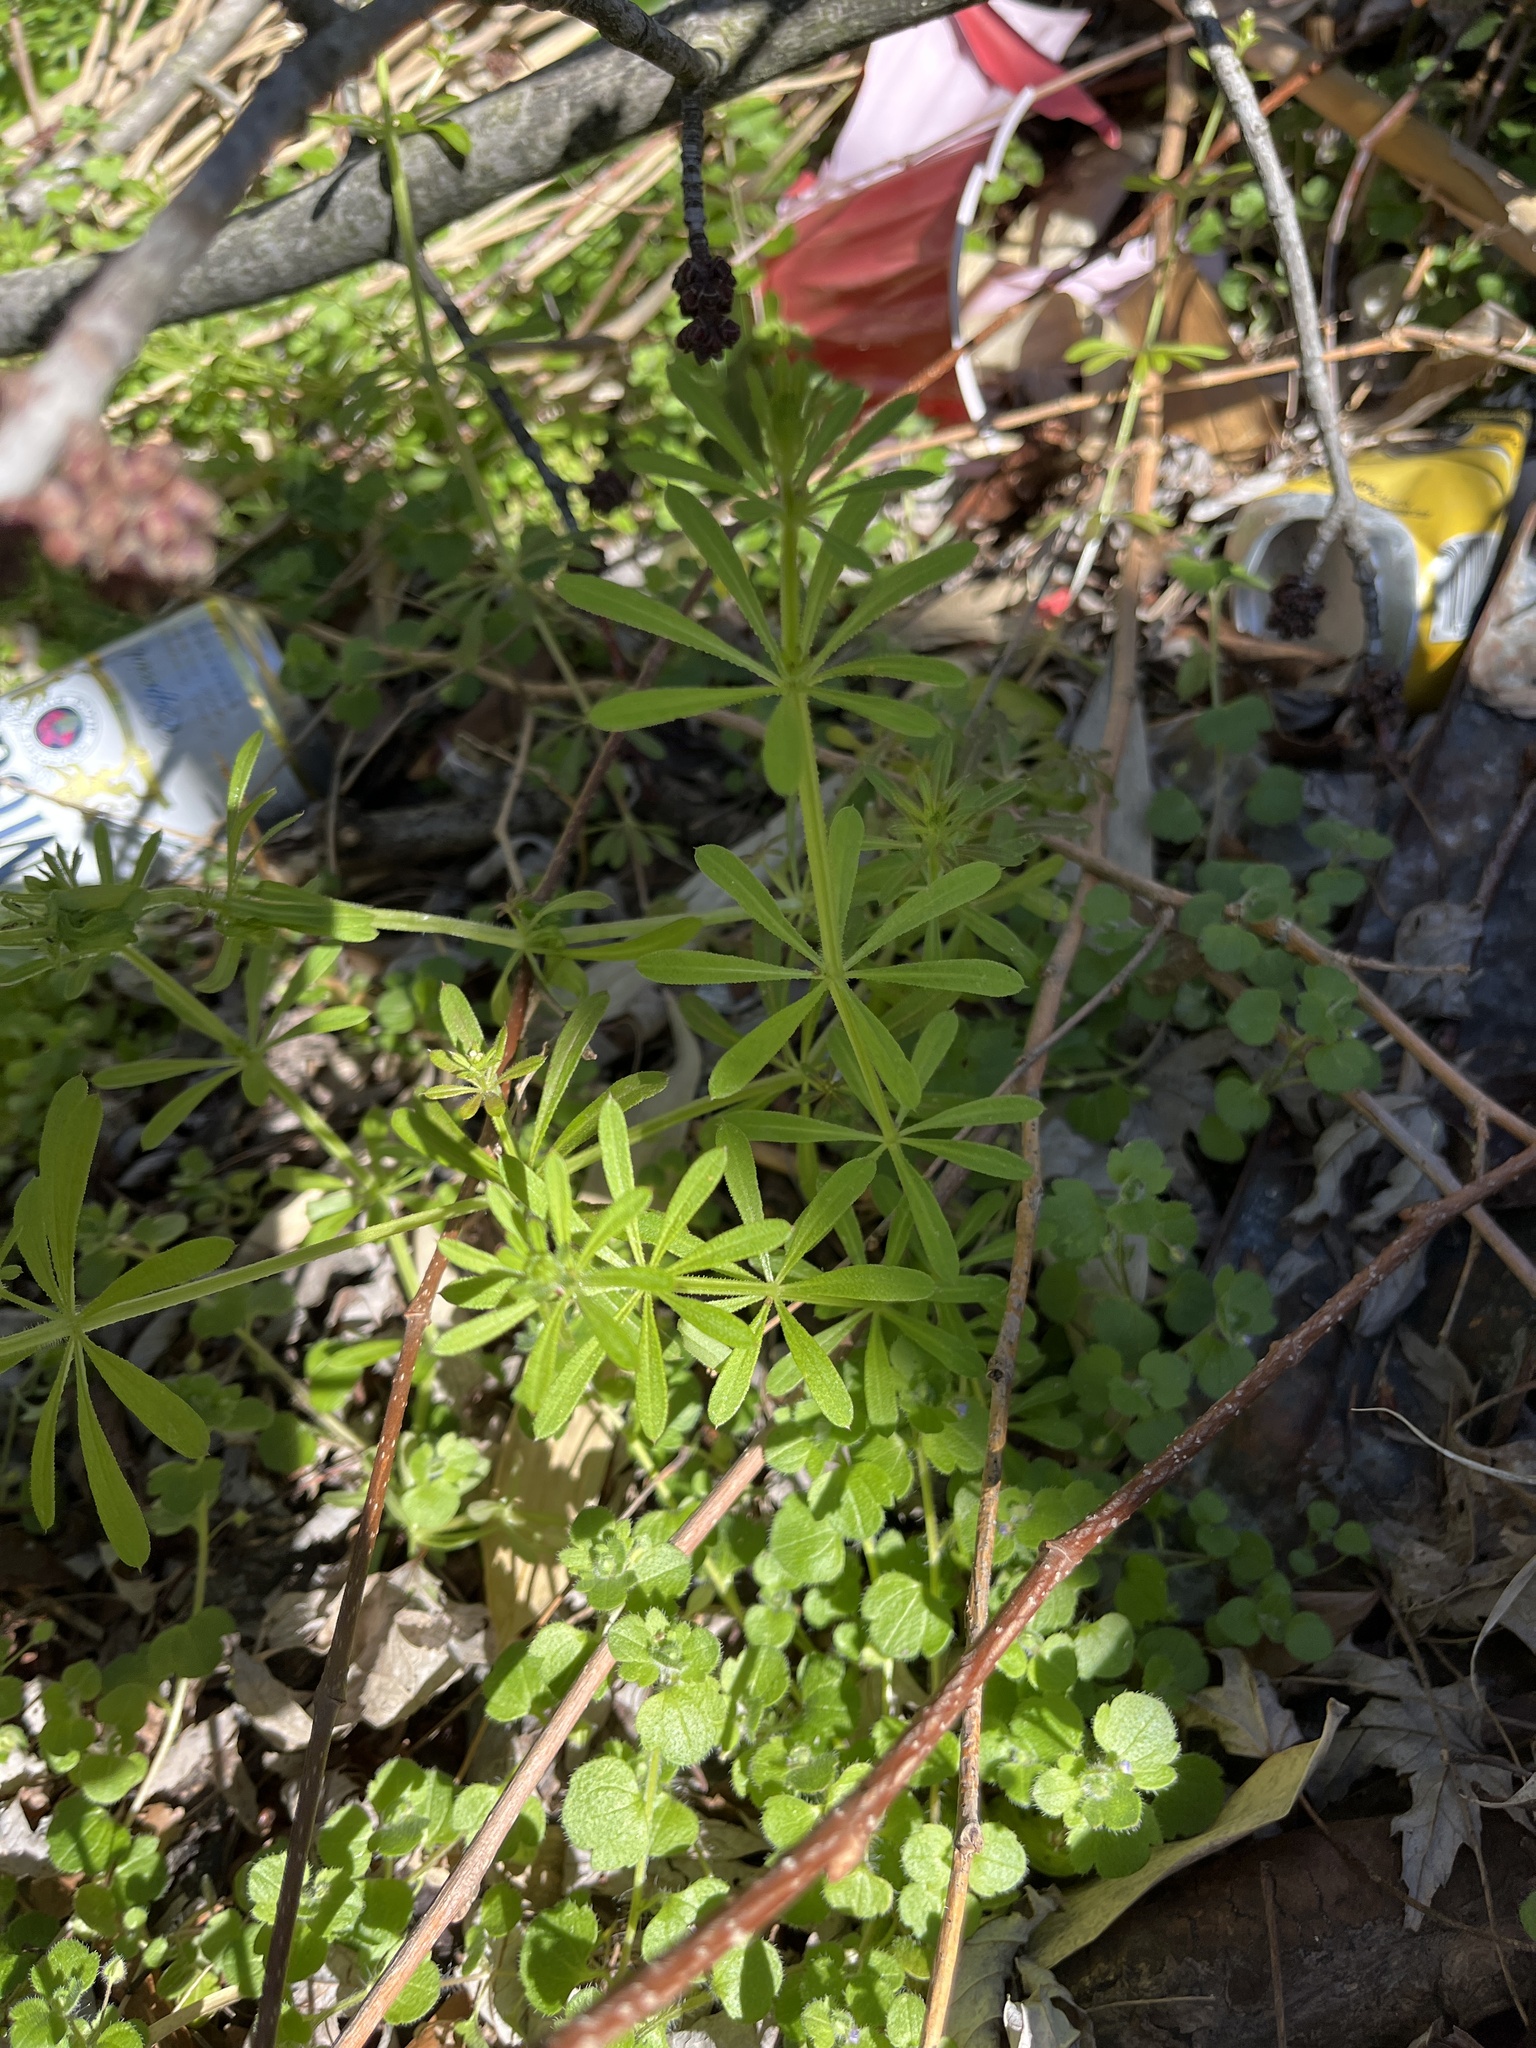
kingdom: Plantae
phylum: Tracheophyta
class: Magnoliopsida
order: Gentianales
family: Rubiaceae
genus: Galium
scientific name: Galium aparine
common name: Cleavers
